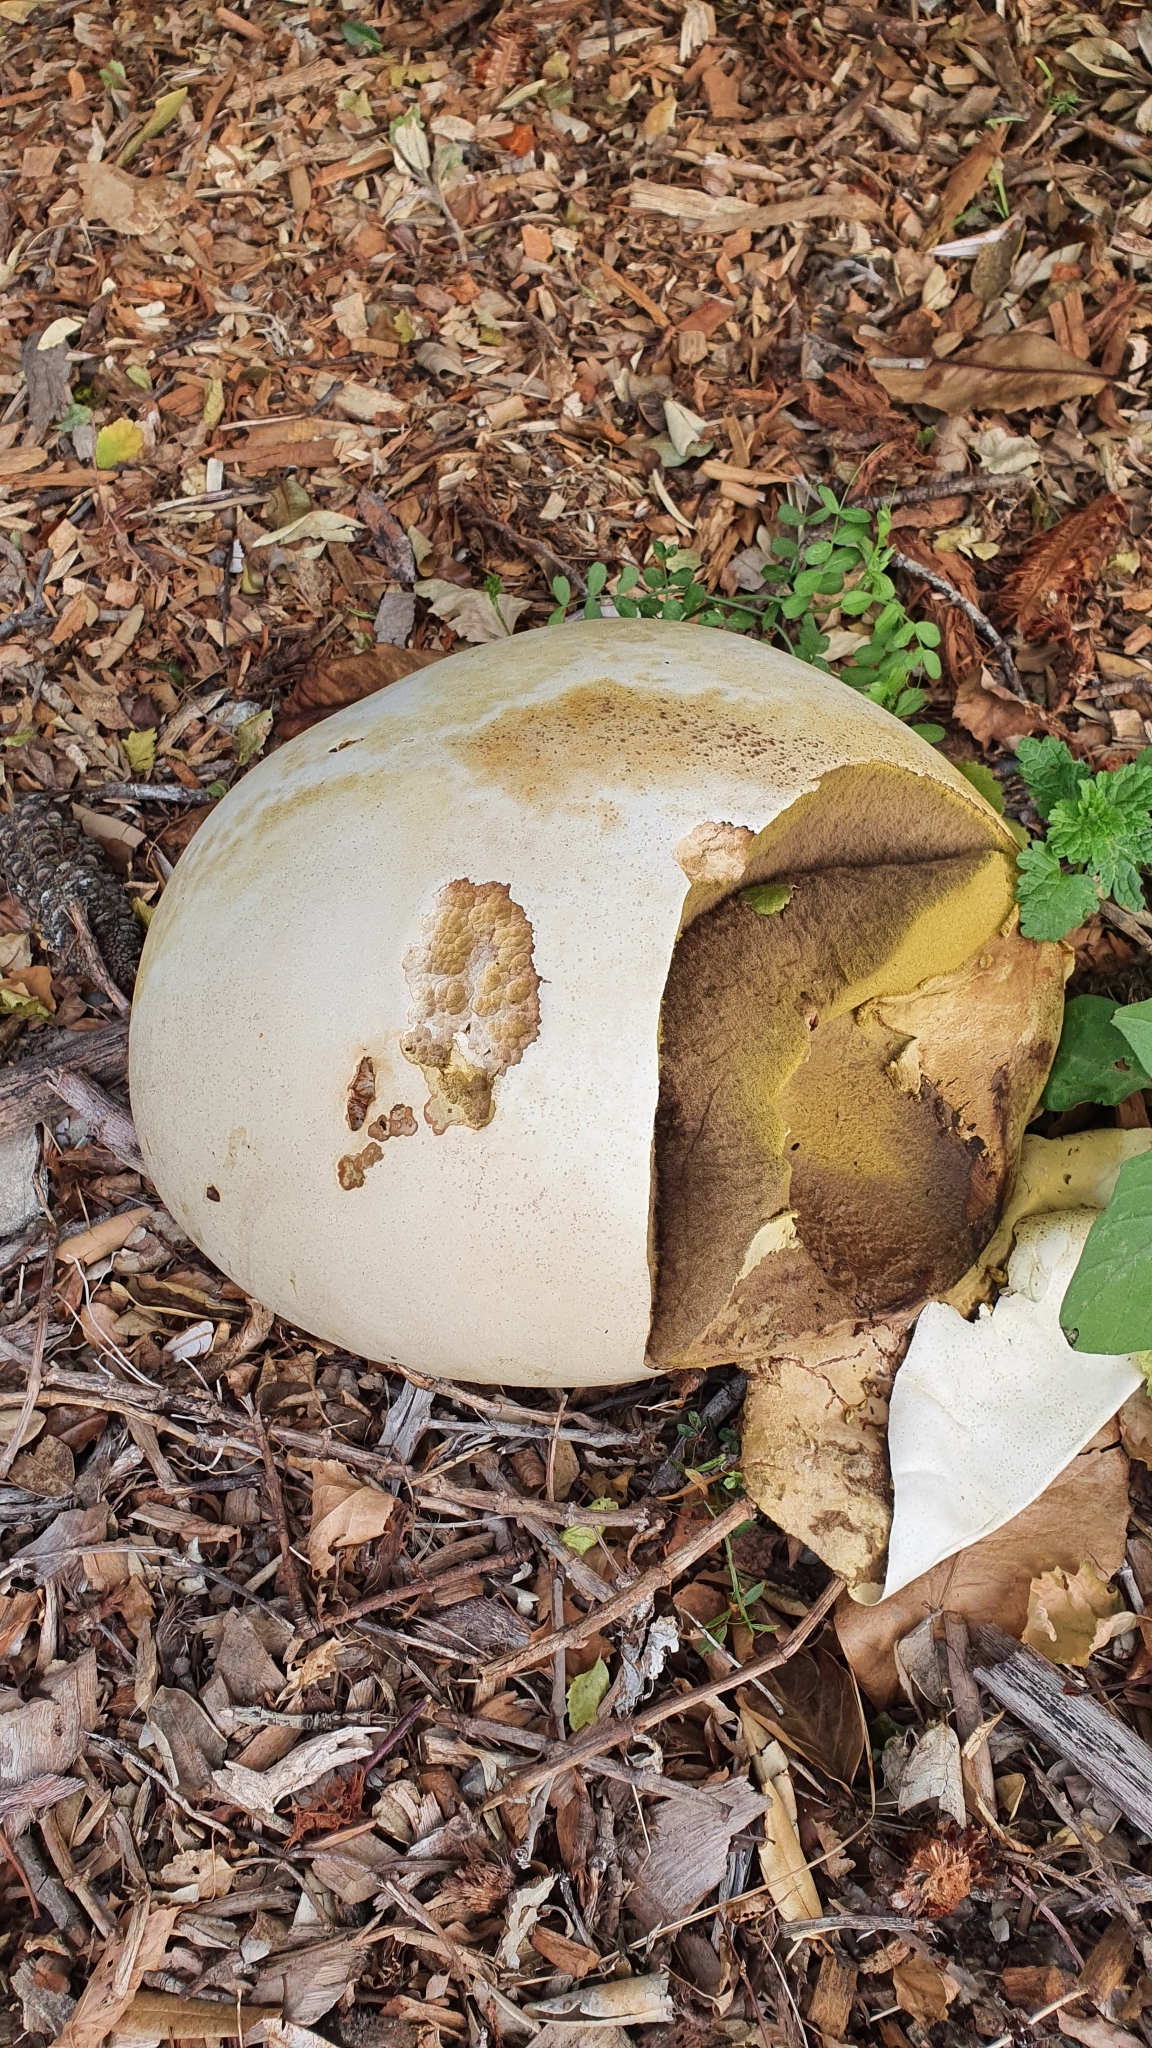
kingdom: Fungi
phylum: Basidiomycota
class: Agaricomycetes
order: Agaricales
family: Lycoperdaceae
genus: Calvatia
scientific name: Calvatia gigantea
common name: Giant puffball
